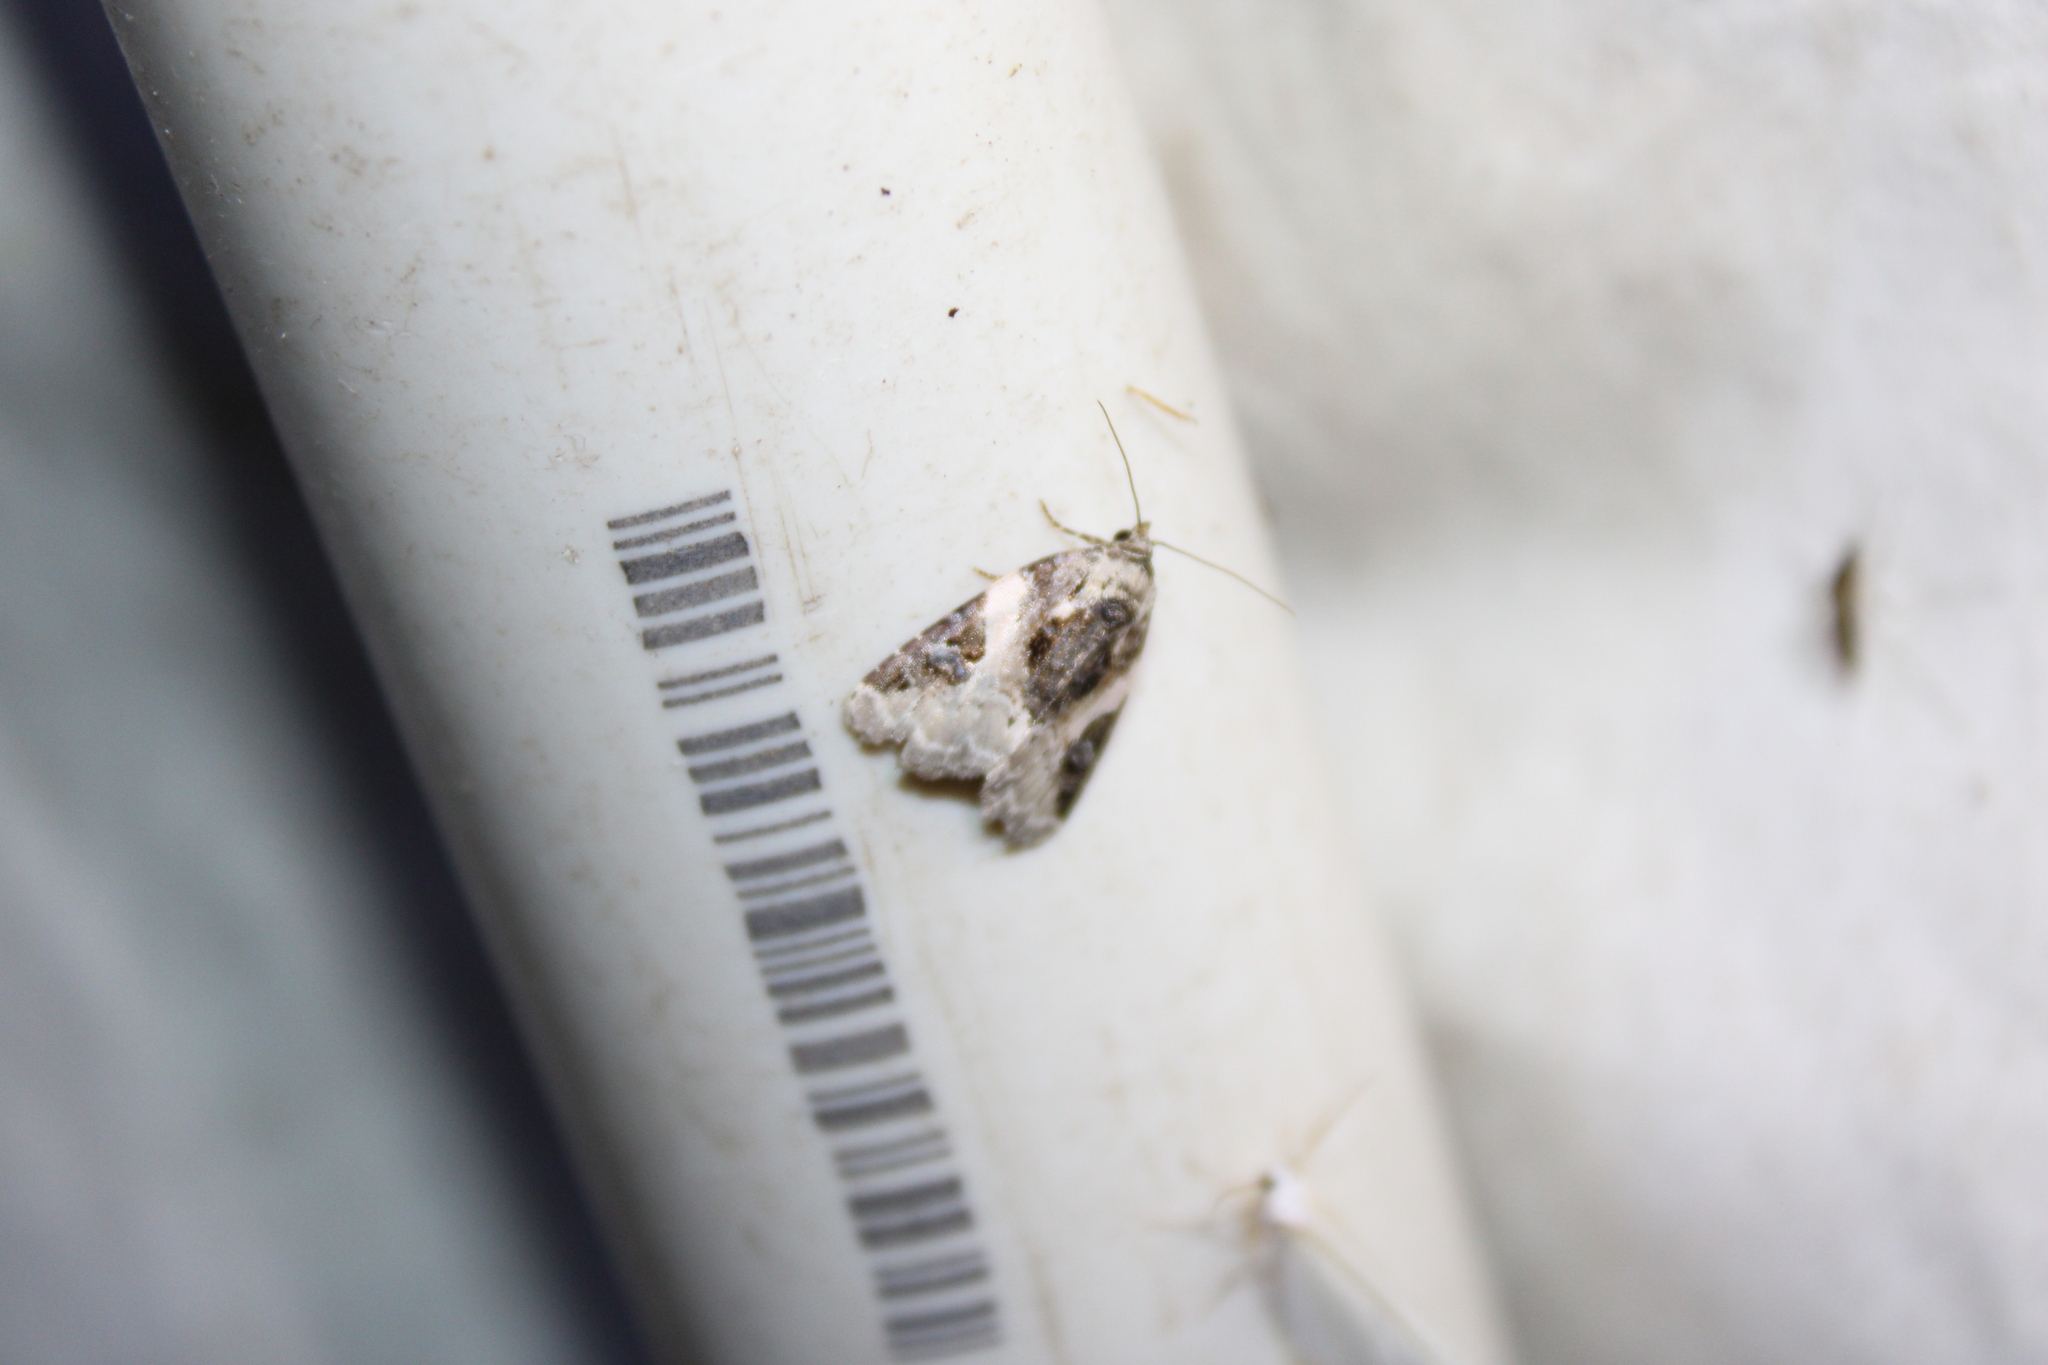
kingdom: Animalia
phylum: Arthropoda
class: Insecta
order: Lepidoptera
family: Noctuidae
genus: Pseudeustrotia
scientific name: Pseudeustrotia carneola
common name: Pink-barred lithacodia moth
